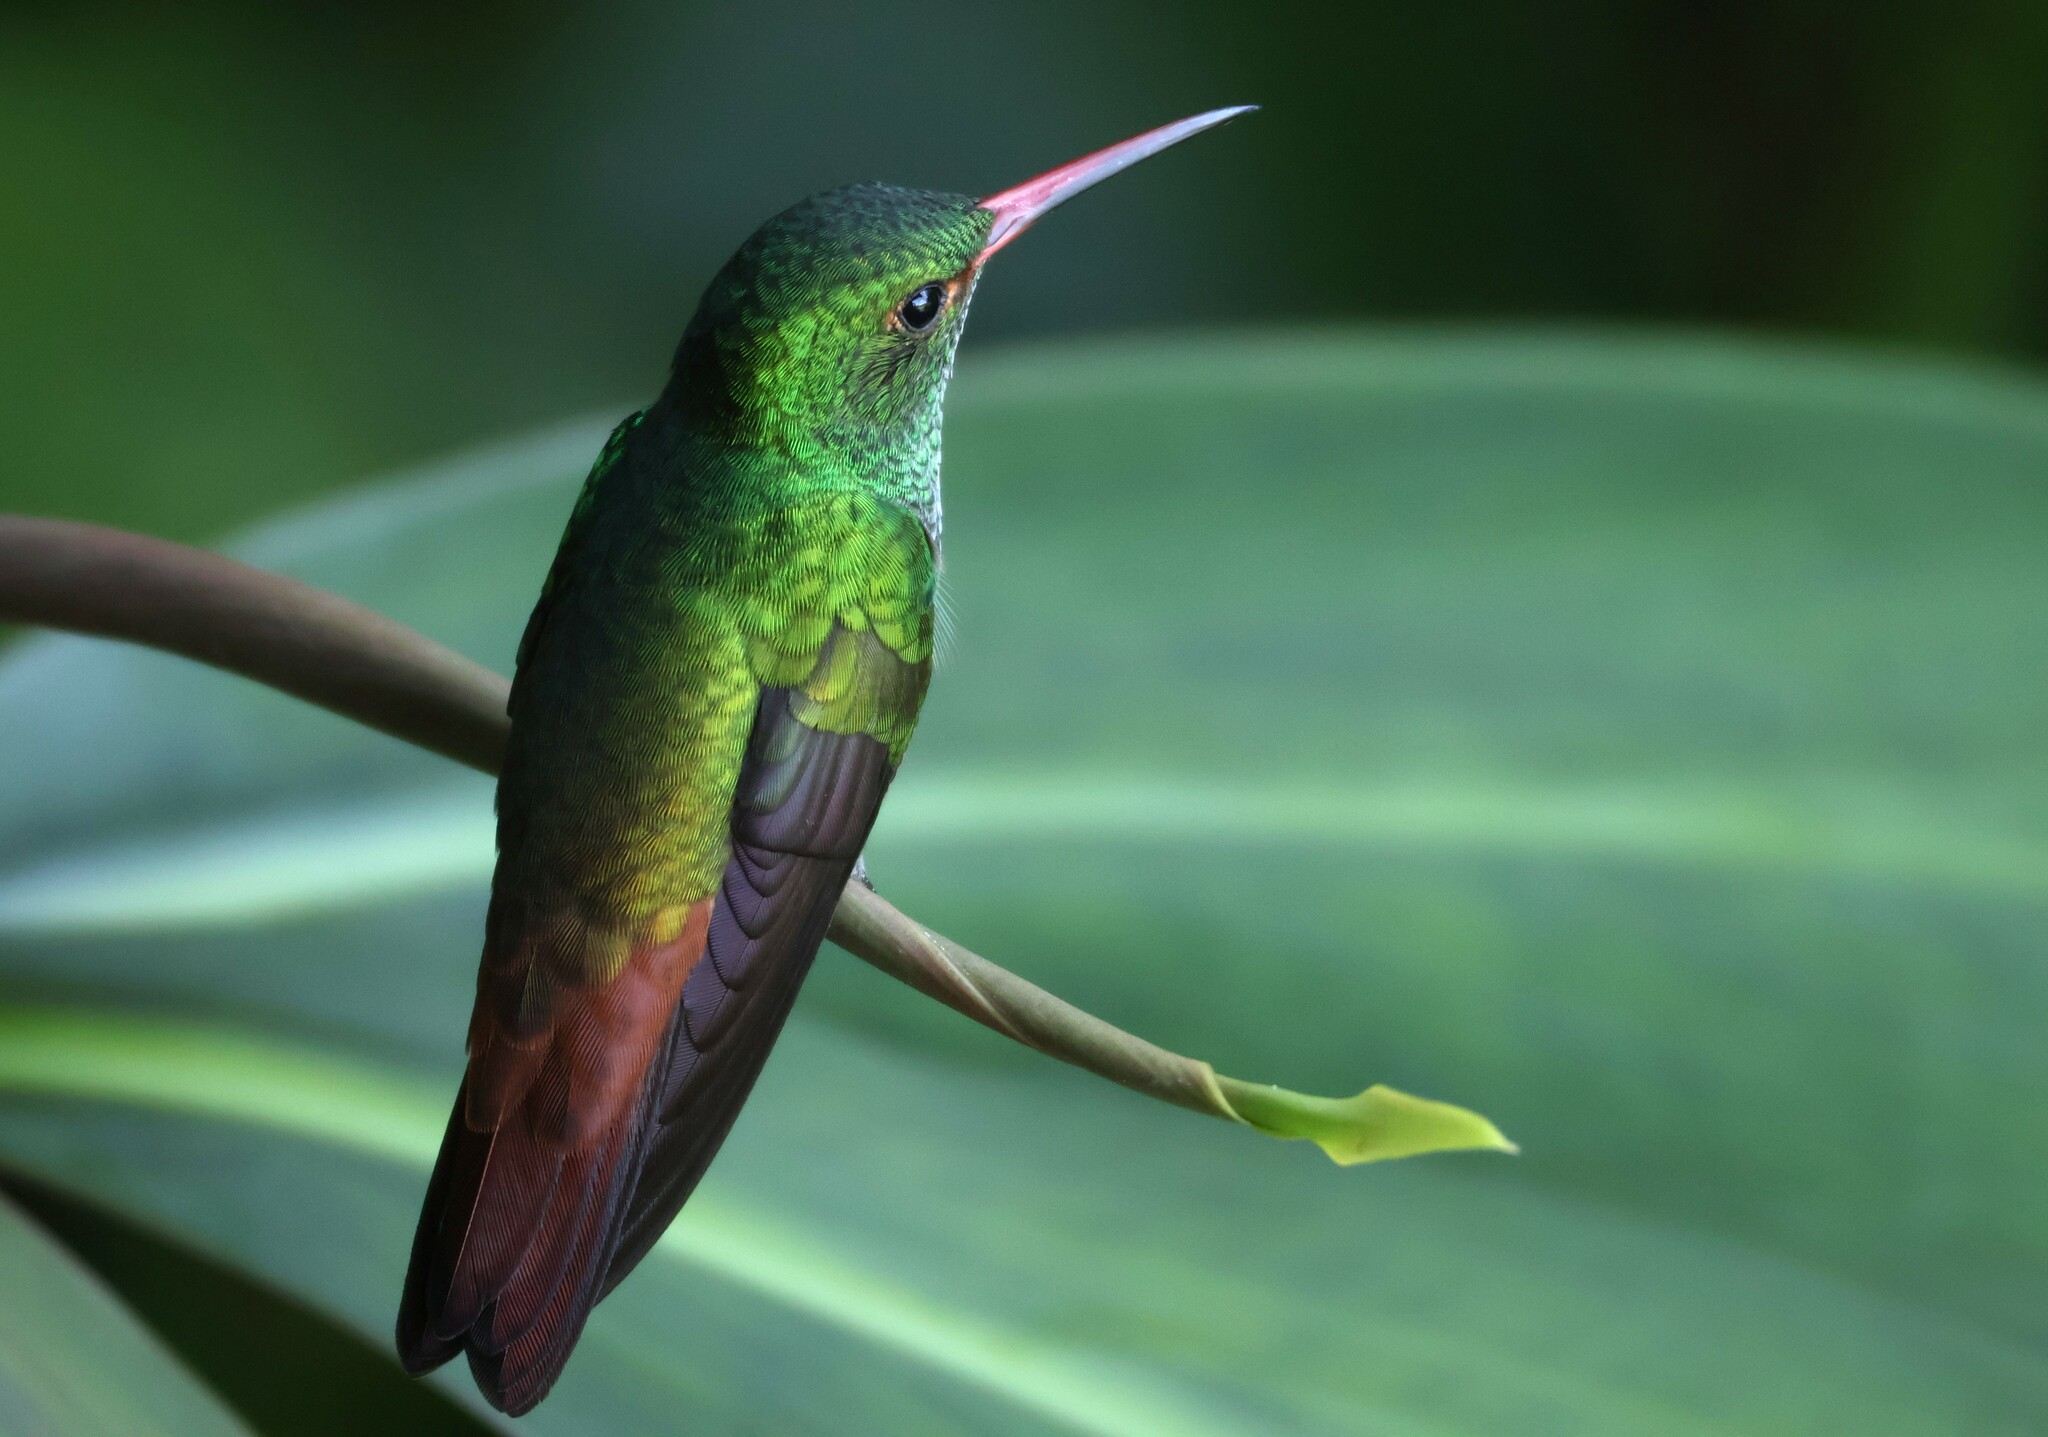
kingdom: Animalia
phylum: Chordata
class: Aves
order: Apodiformes
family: Trochilidae
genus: Amazilia
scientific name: Amazilia tzacatl
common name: Rufous-tailed hummingbird
